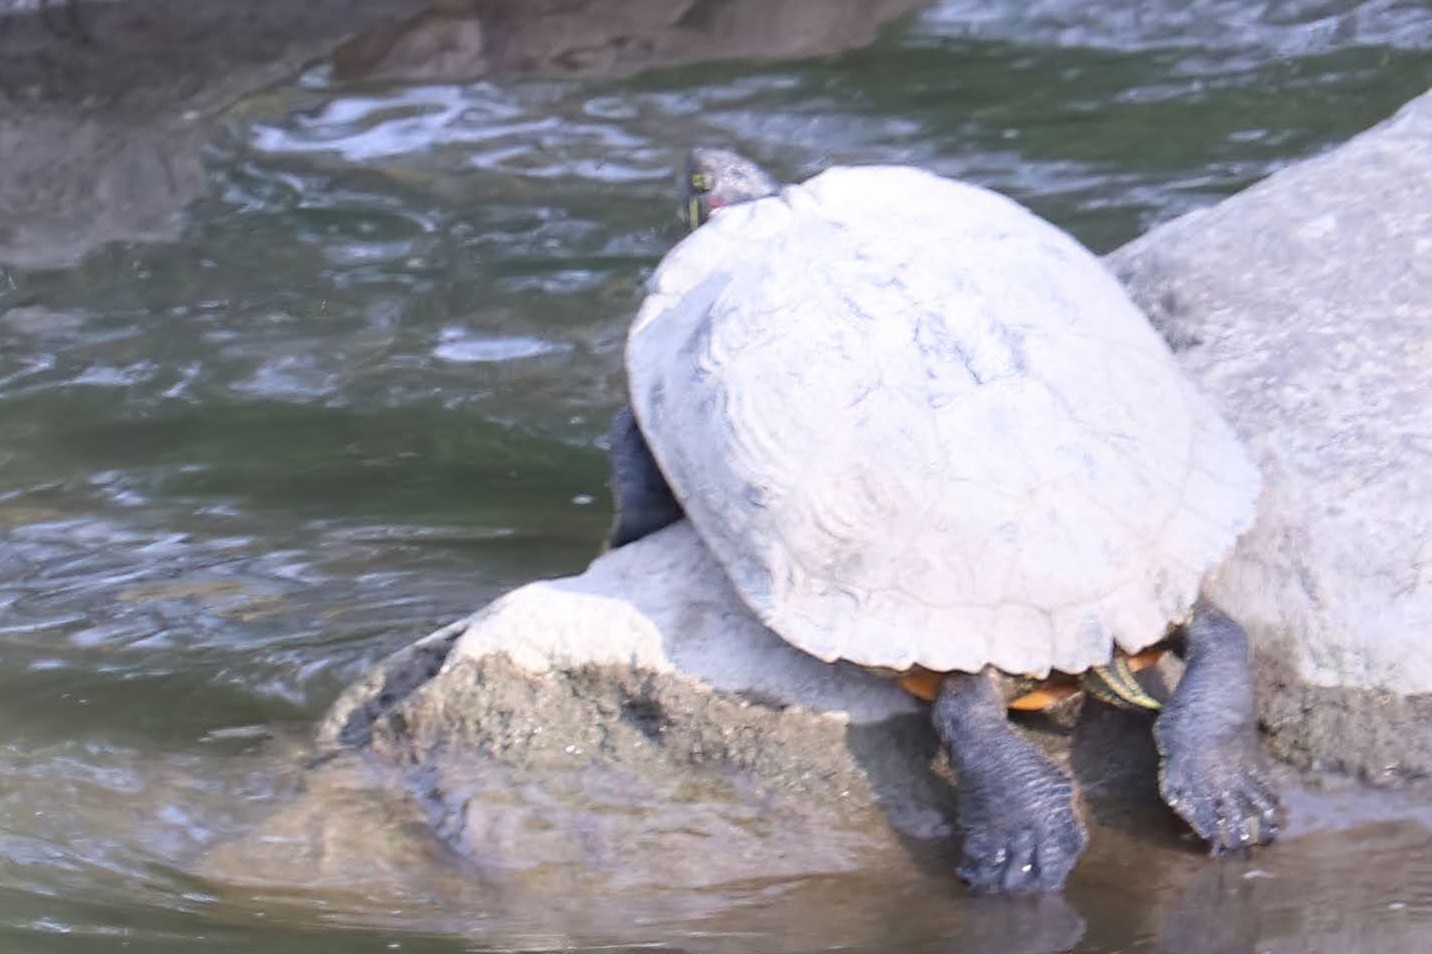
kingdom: Animalia
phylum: Chordata
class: Testudines
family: Emydidae
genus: Trachemys
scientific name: Trachemys scripta
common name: Slider
